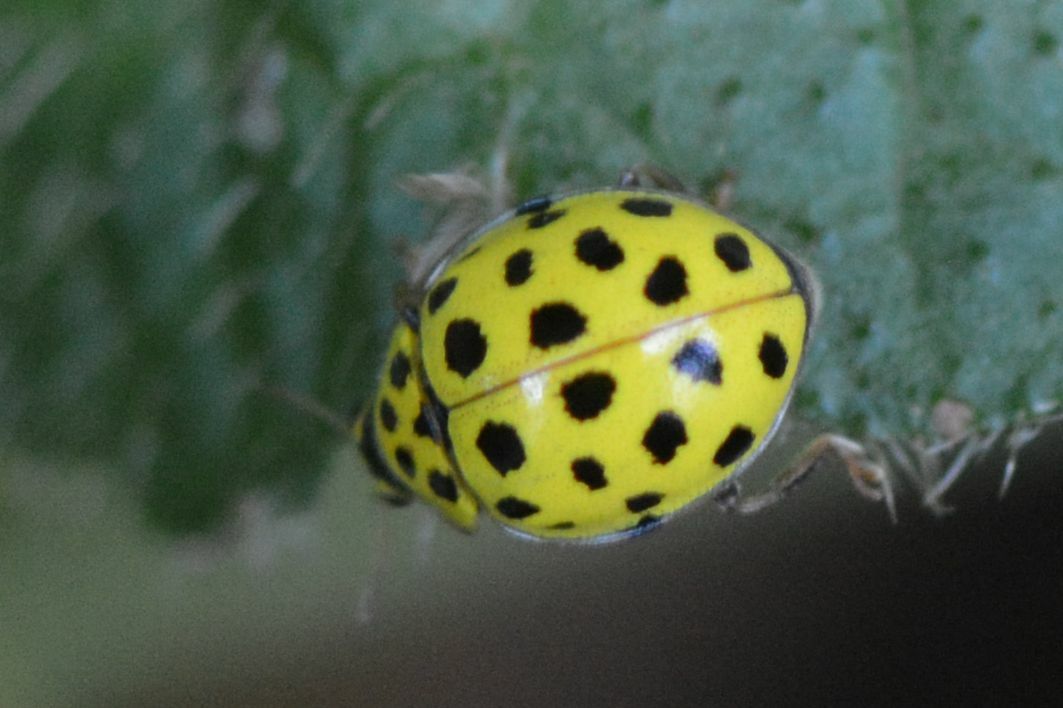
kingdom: Animalia
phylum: Arthropoda
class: Insecta
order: Coleoptera
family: Coccinellidae
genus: Psyllobora
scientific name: Psyllobora vigintiduopunctata
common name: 22-spot ladybird
